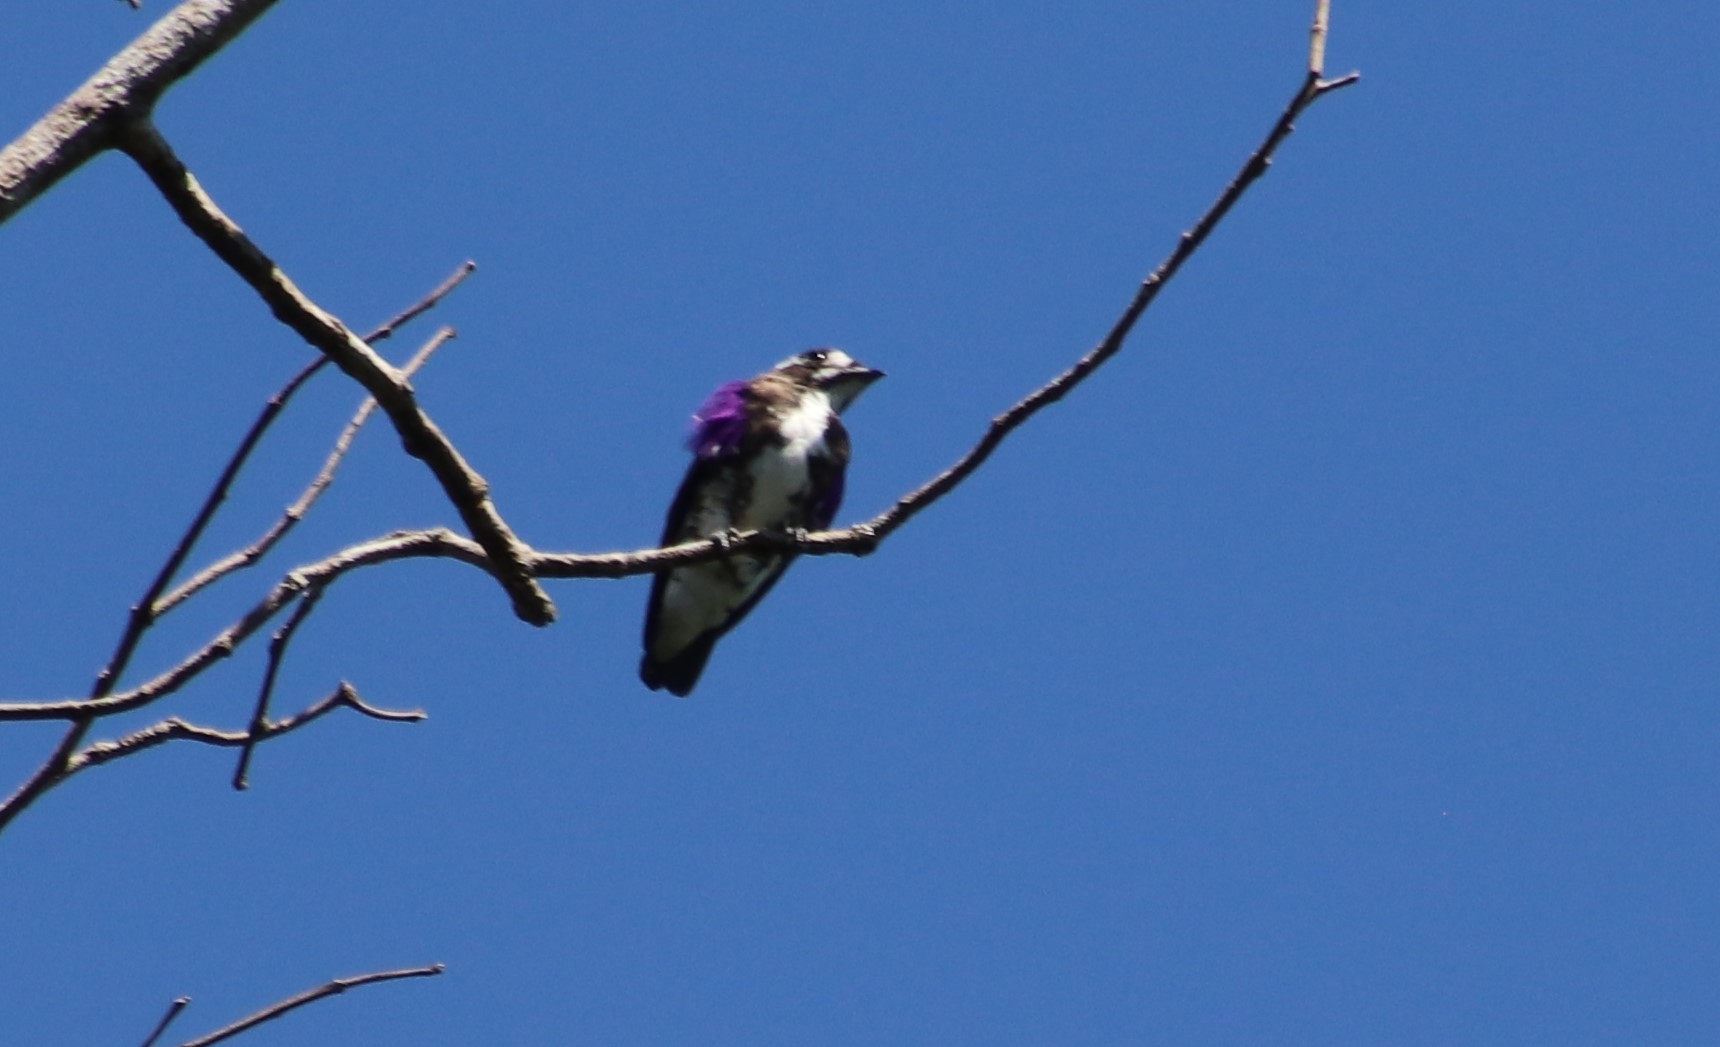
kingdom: Animalia
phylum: Chordata
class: Aves
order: Passeriformes
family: Cotingidae
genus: Iodopleura
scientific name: Iodopleura isabellae
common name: White-browed purpletuft
